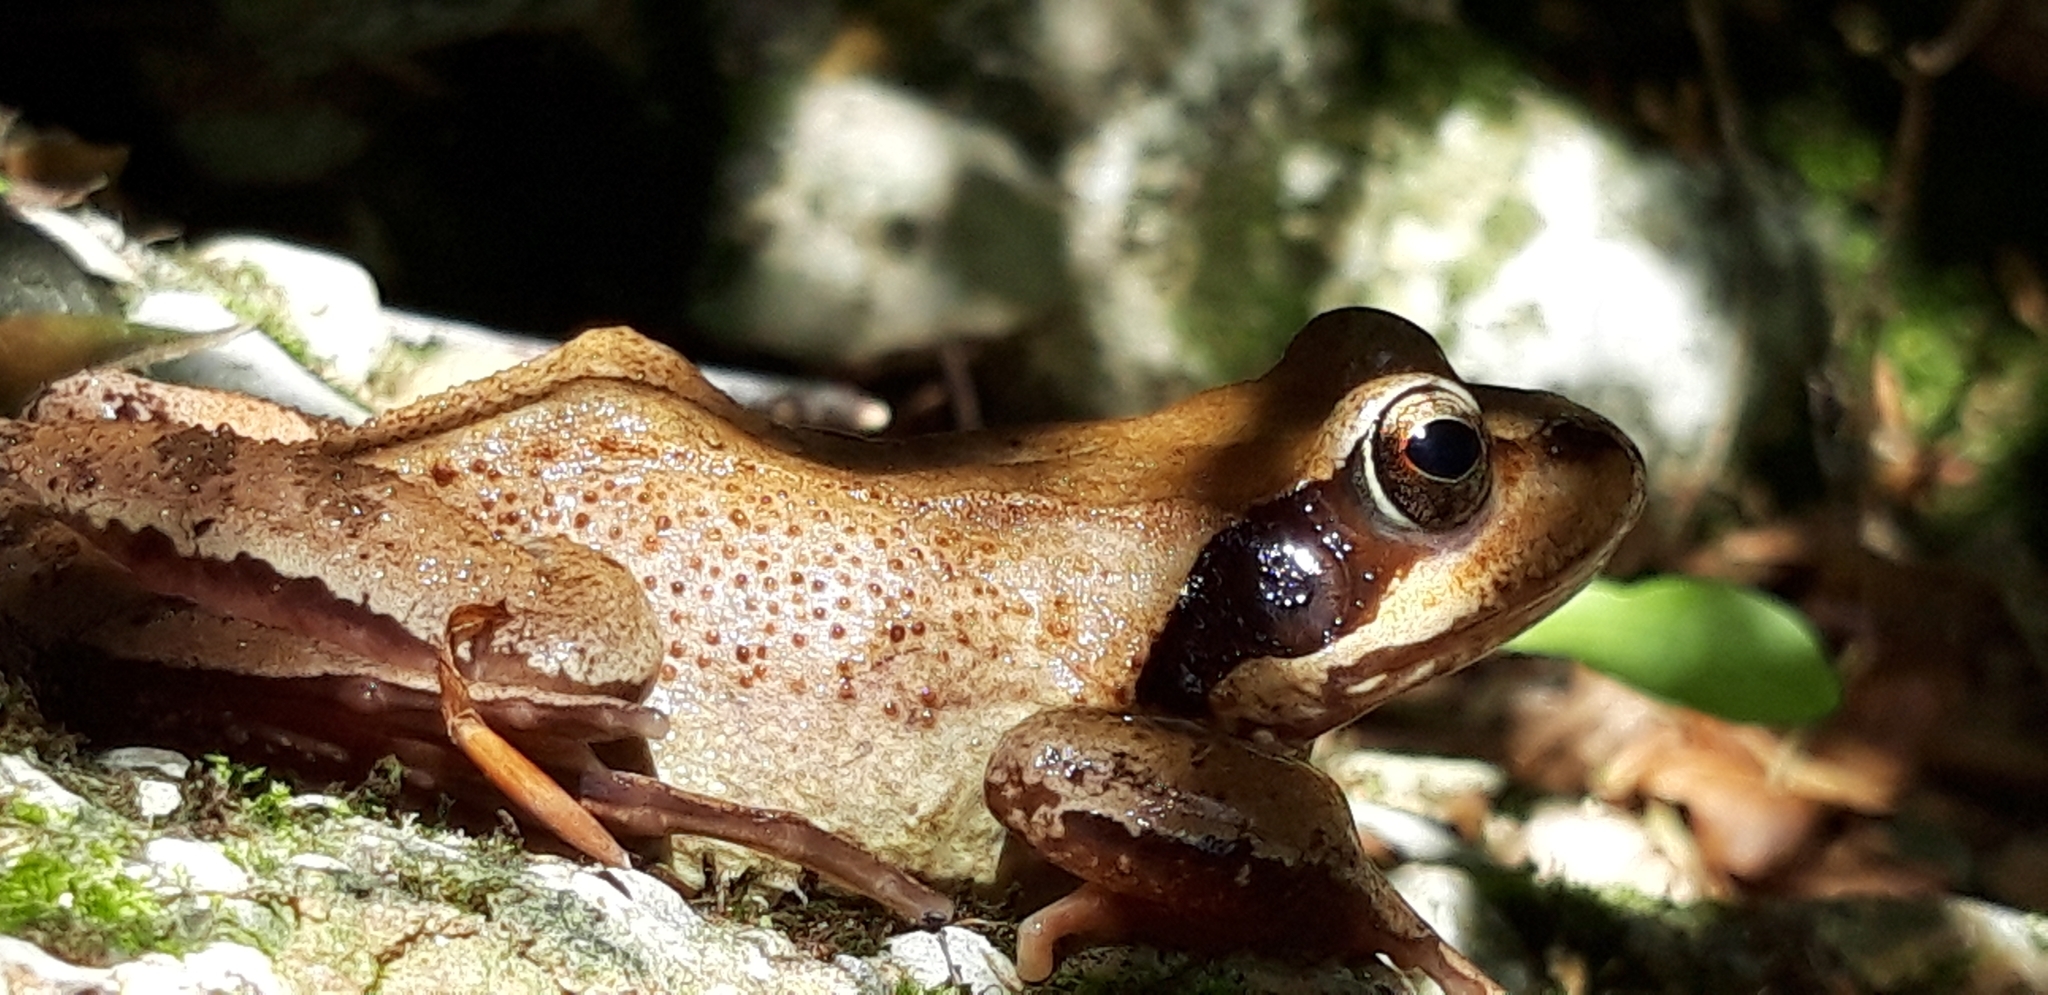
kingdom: Animalia
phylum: Chordata
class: Amphibia
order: Anura
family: Ranidae
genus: Rana
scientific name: Rana temporaria
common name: Common frog
